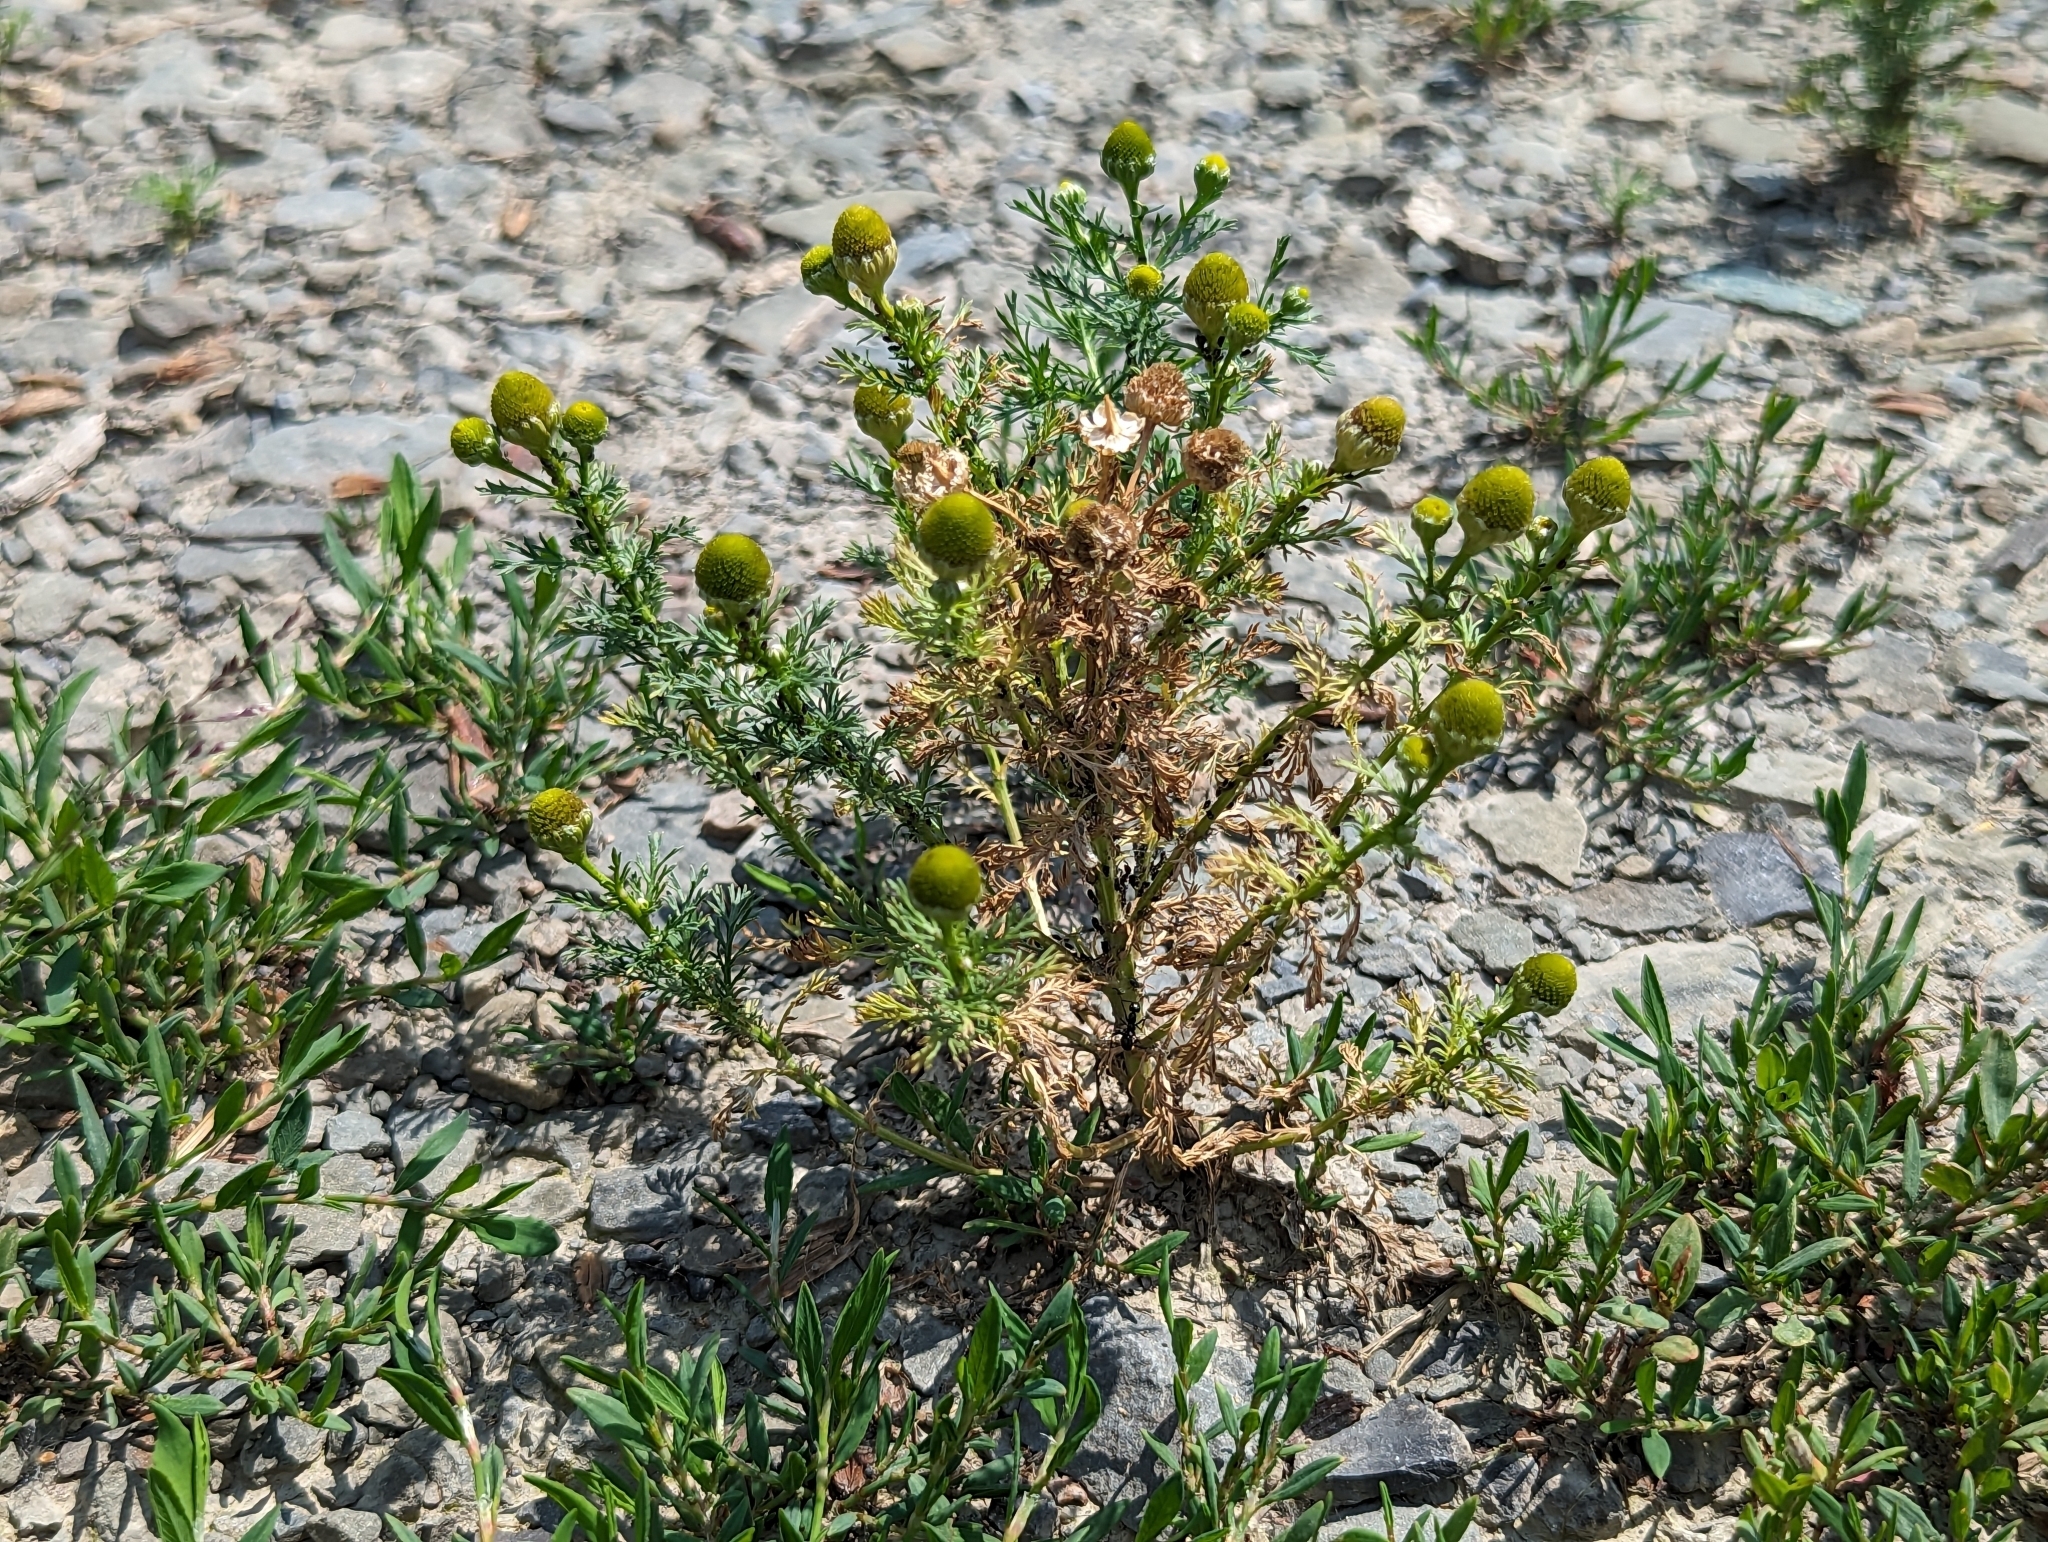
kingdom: Plantae
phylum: Tracheophyta
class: Magnoliopsida
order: Asterales
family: Asteraceae
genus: Matricaria
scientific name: Matricaria discoidea
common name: Disc mayweed
